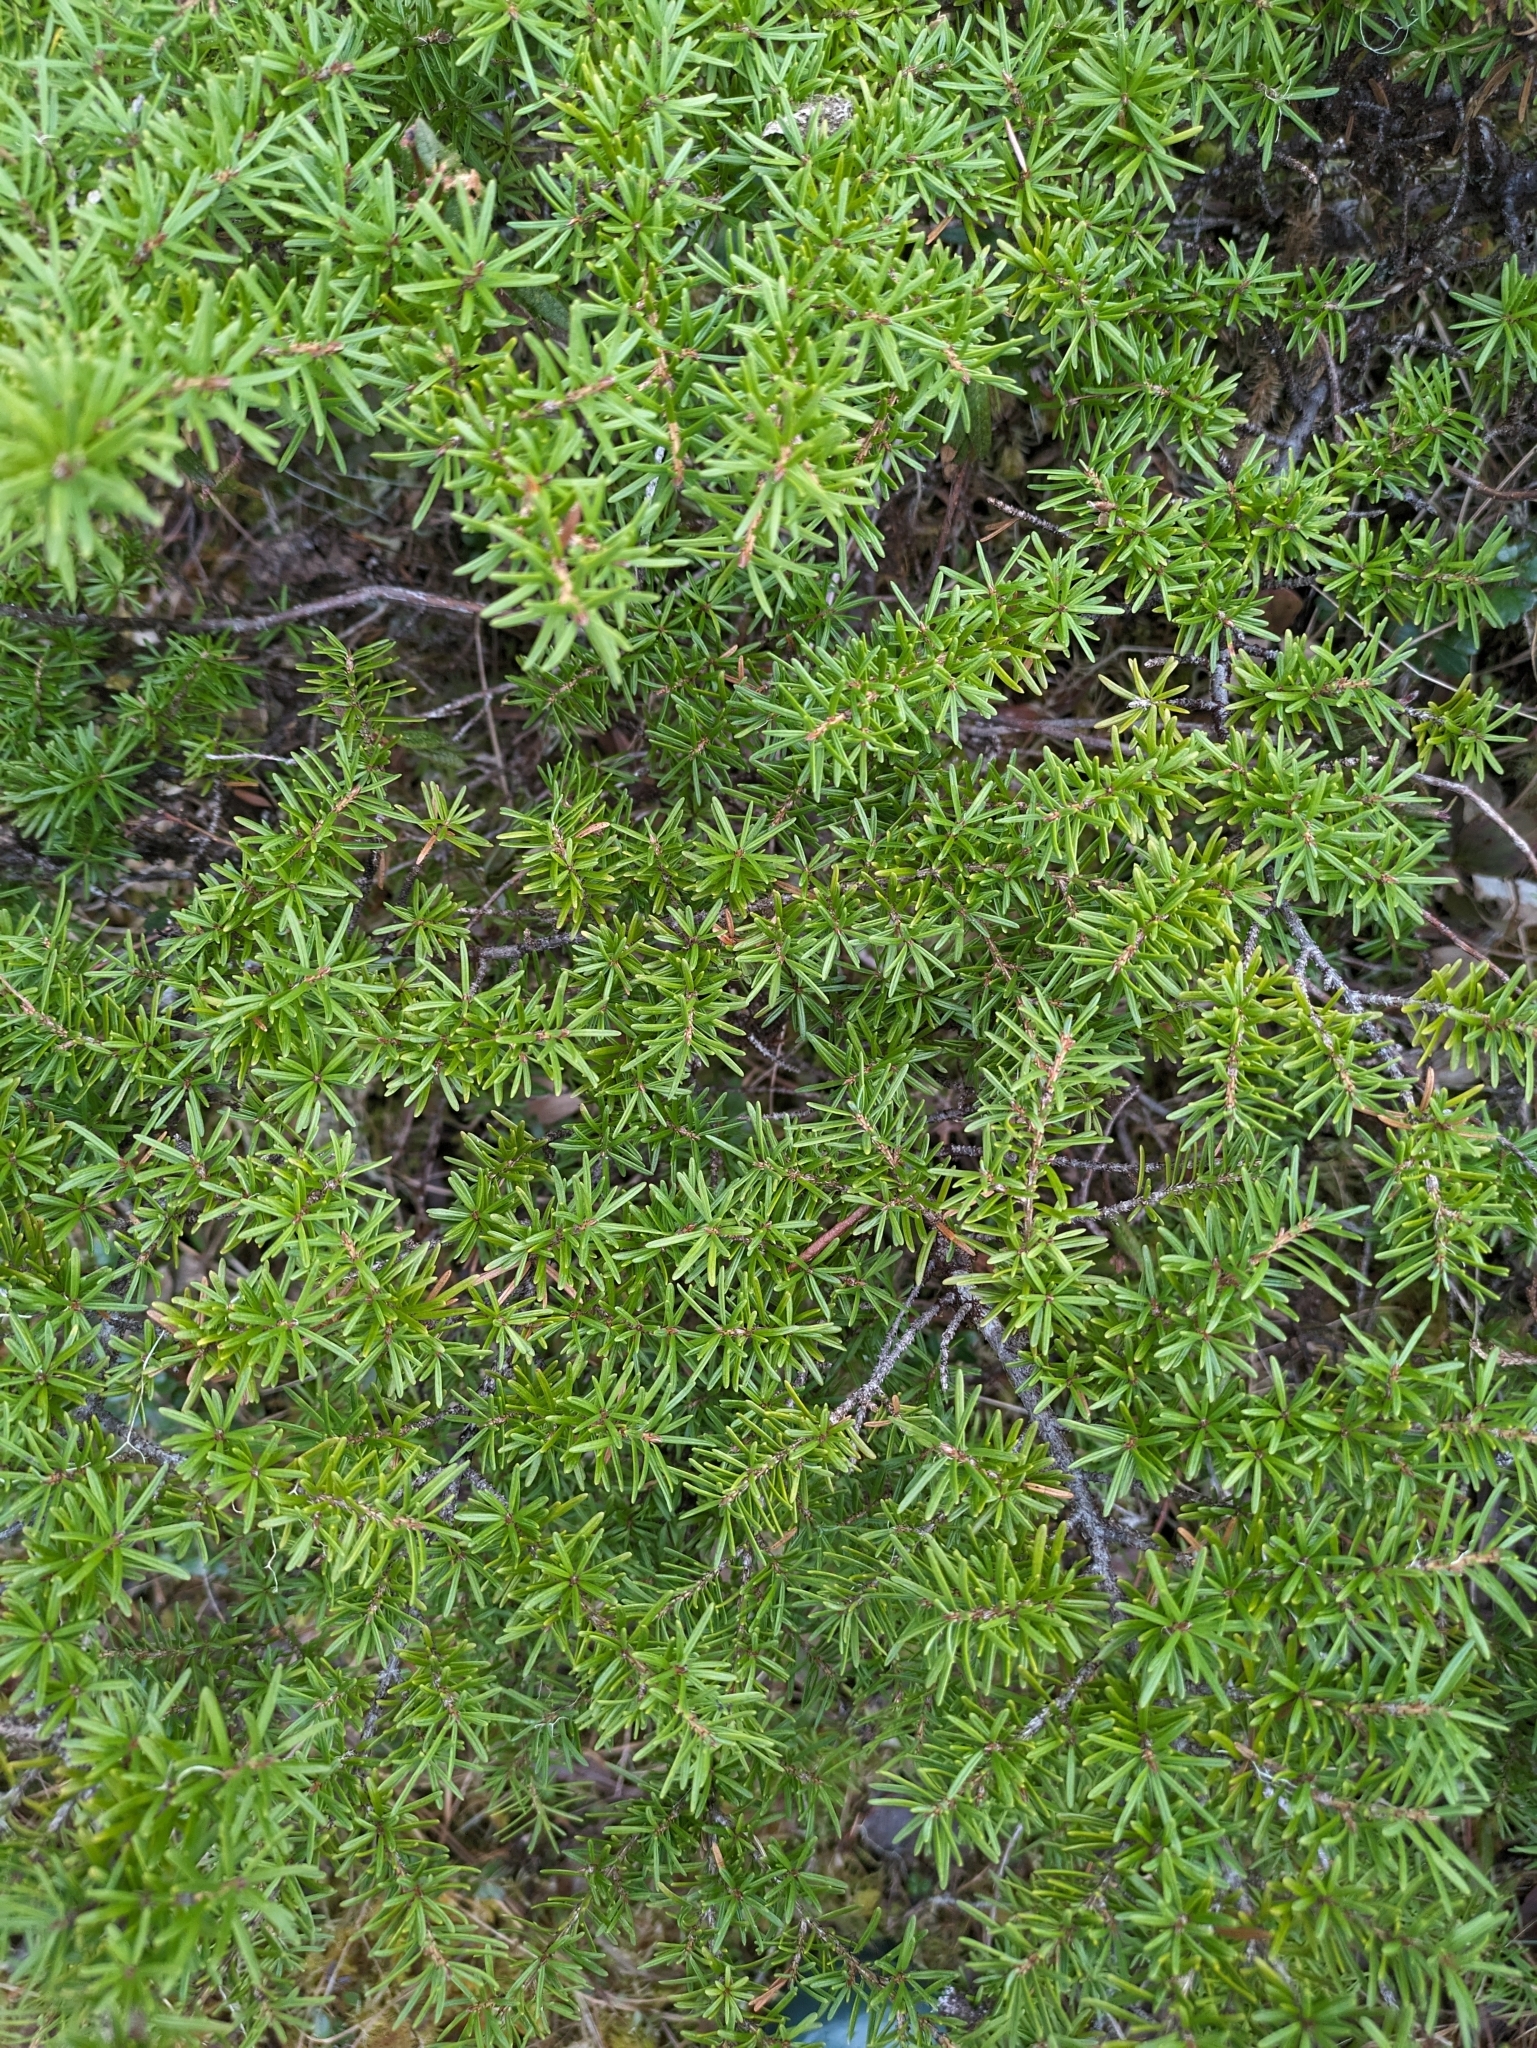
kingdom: Plantae
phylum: Tracheophyta
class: Pinopsida
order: Pinales
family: Pinaceae
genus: Tsuga
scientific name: Tsuga mertensiana
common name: Mountain hemlock
